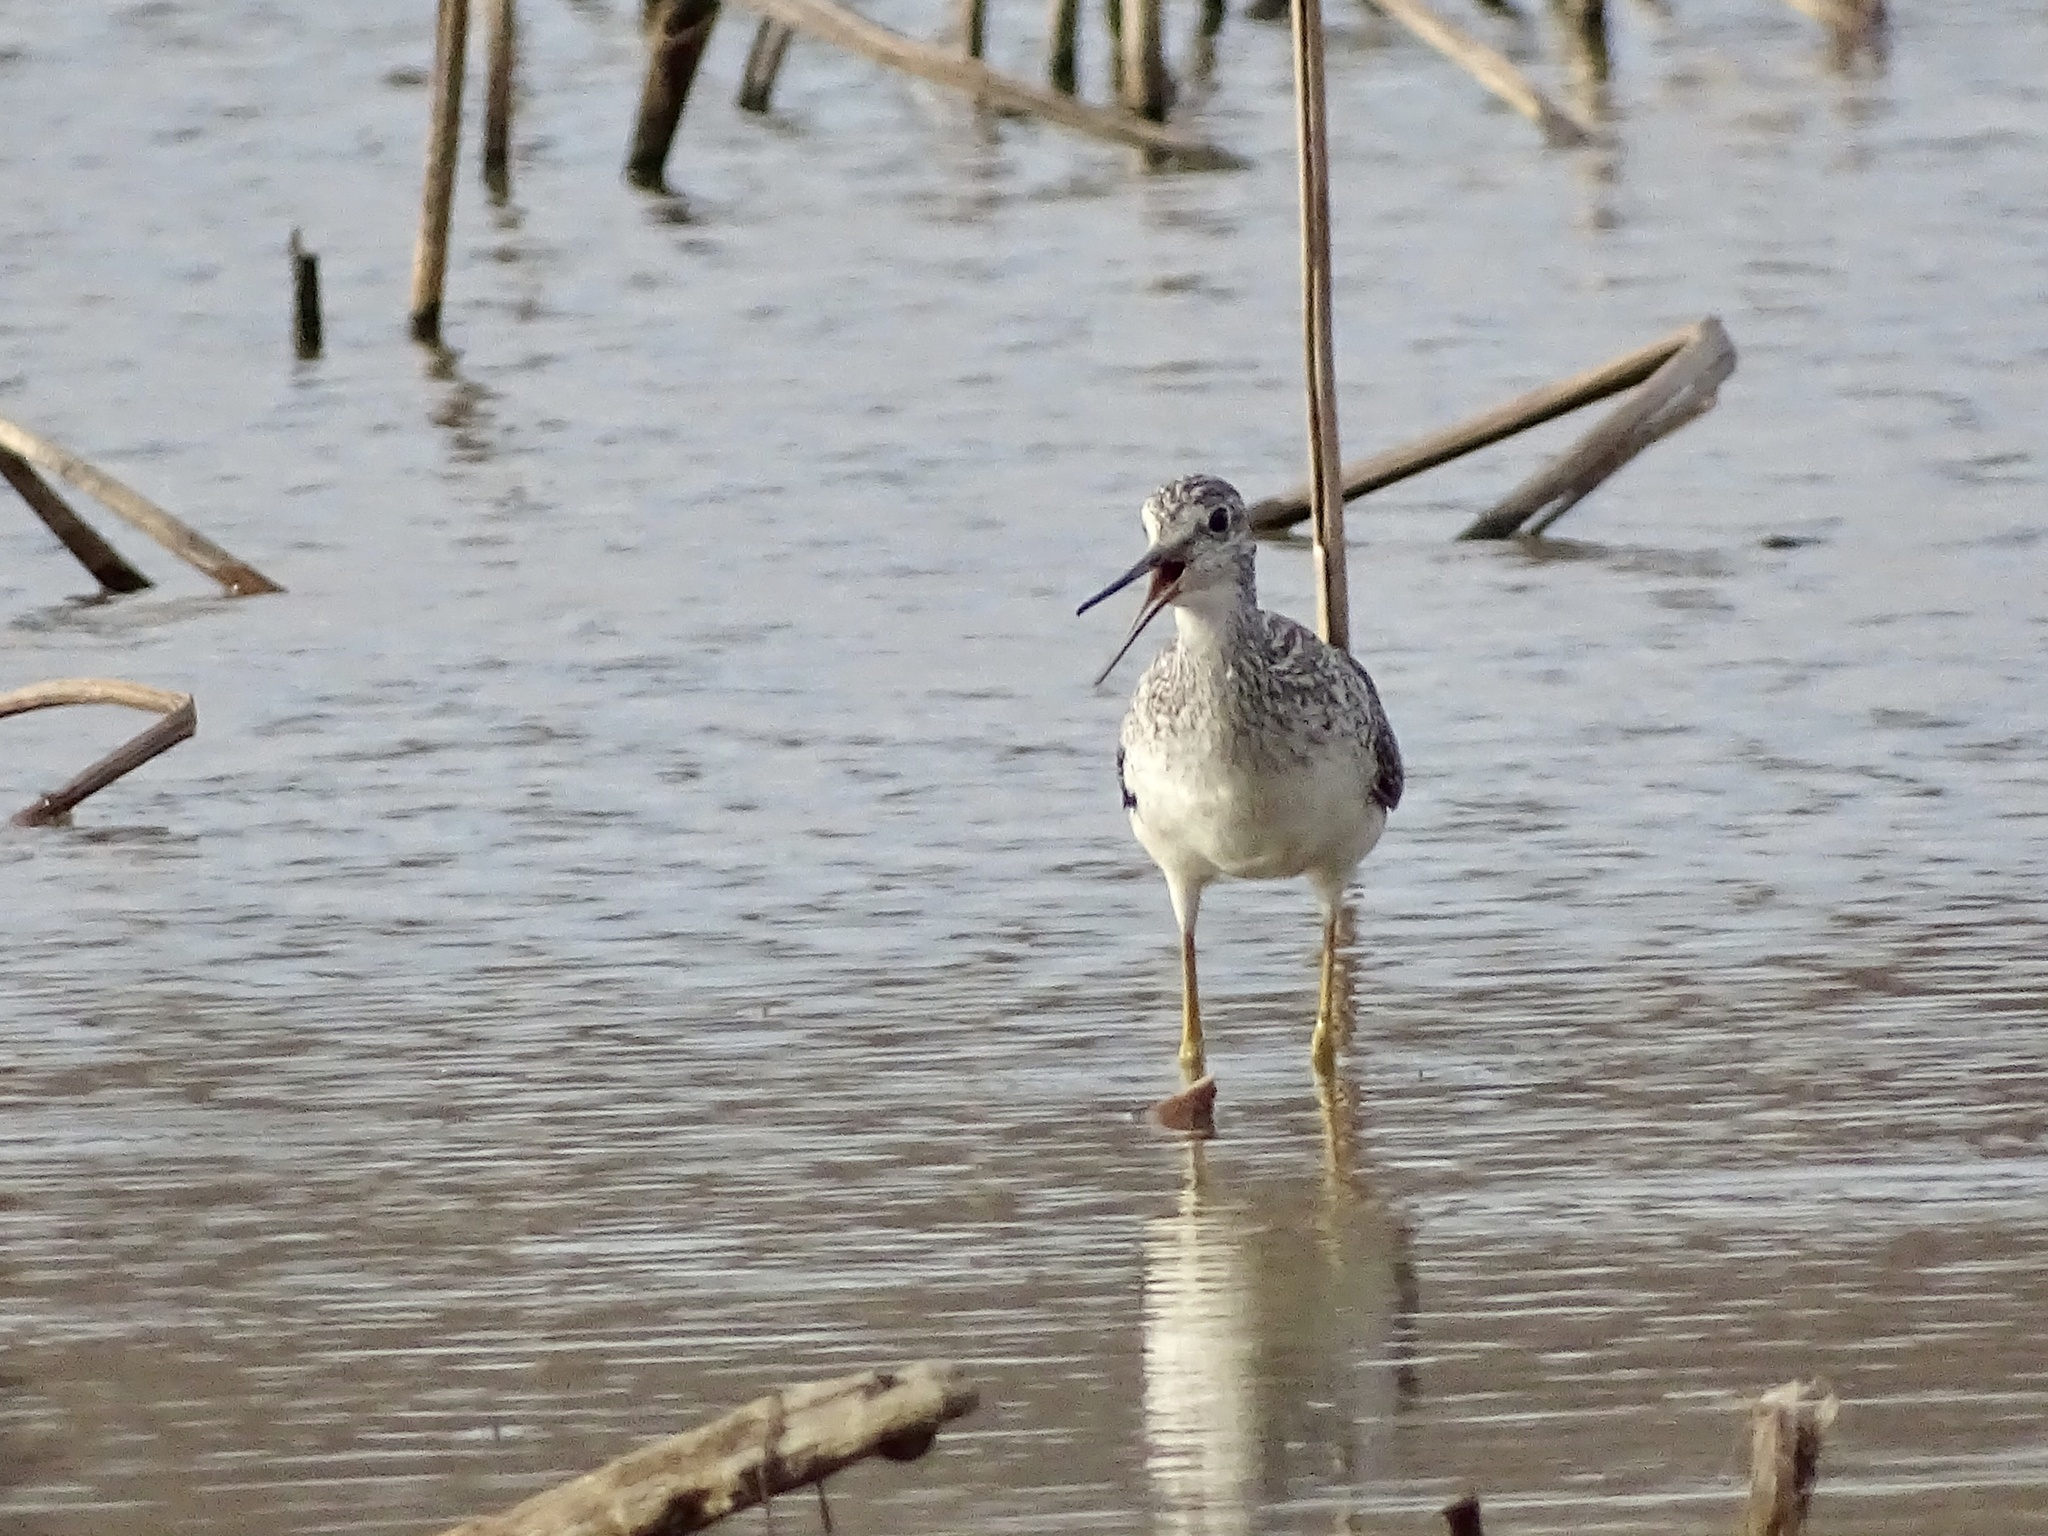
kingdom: Animalia
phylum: Chordata
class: Aves
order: Charadriiformes
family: Scolopacidae
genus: Tringa
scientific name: Tringa melanoleuca
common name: Greater yellowlegs
